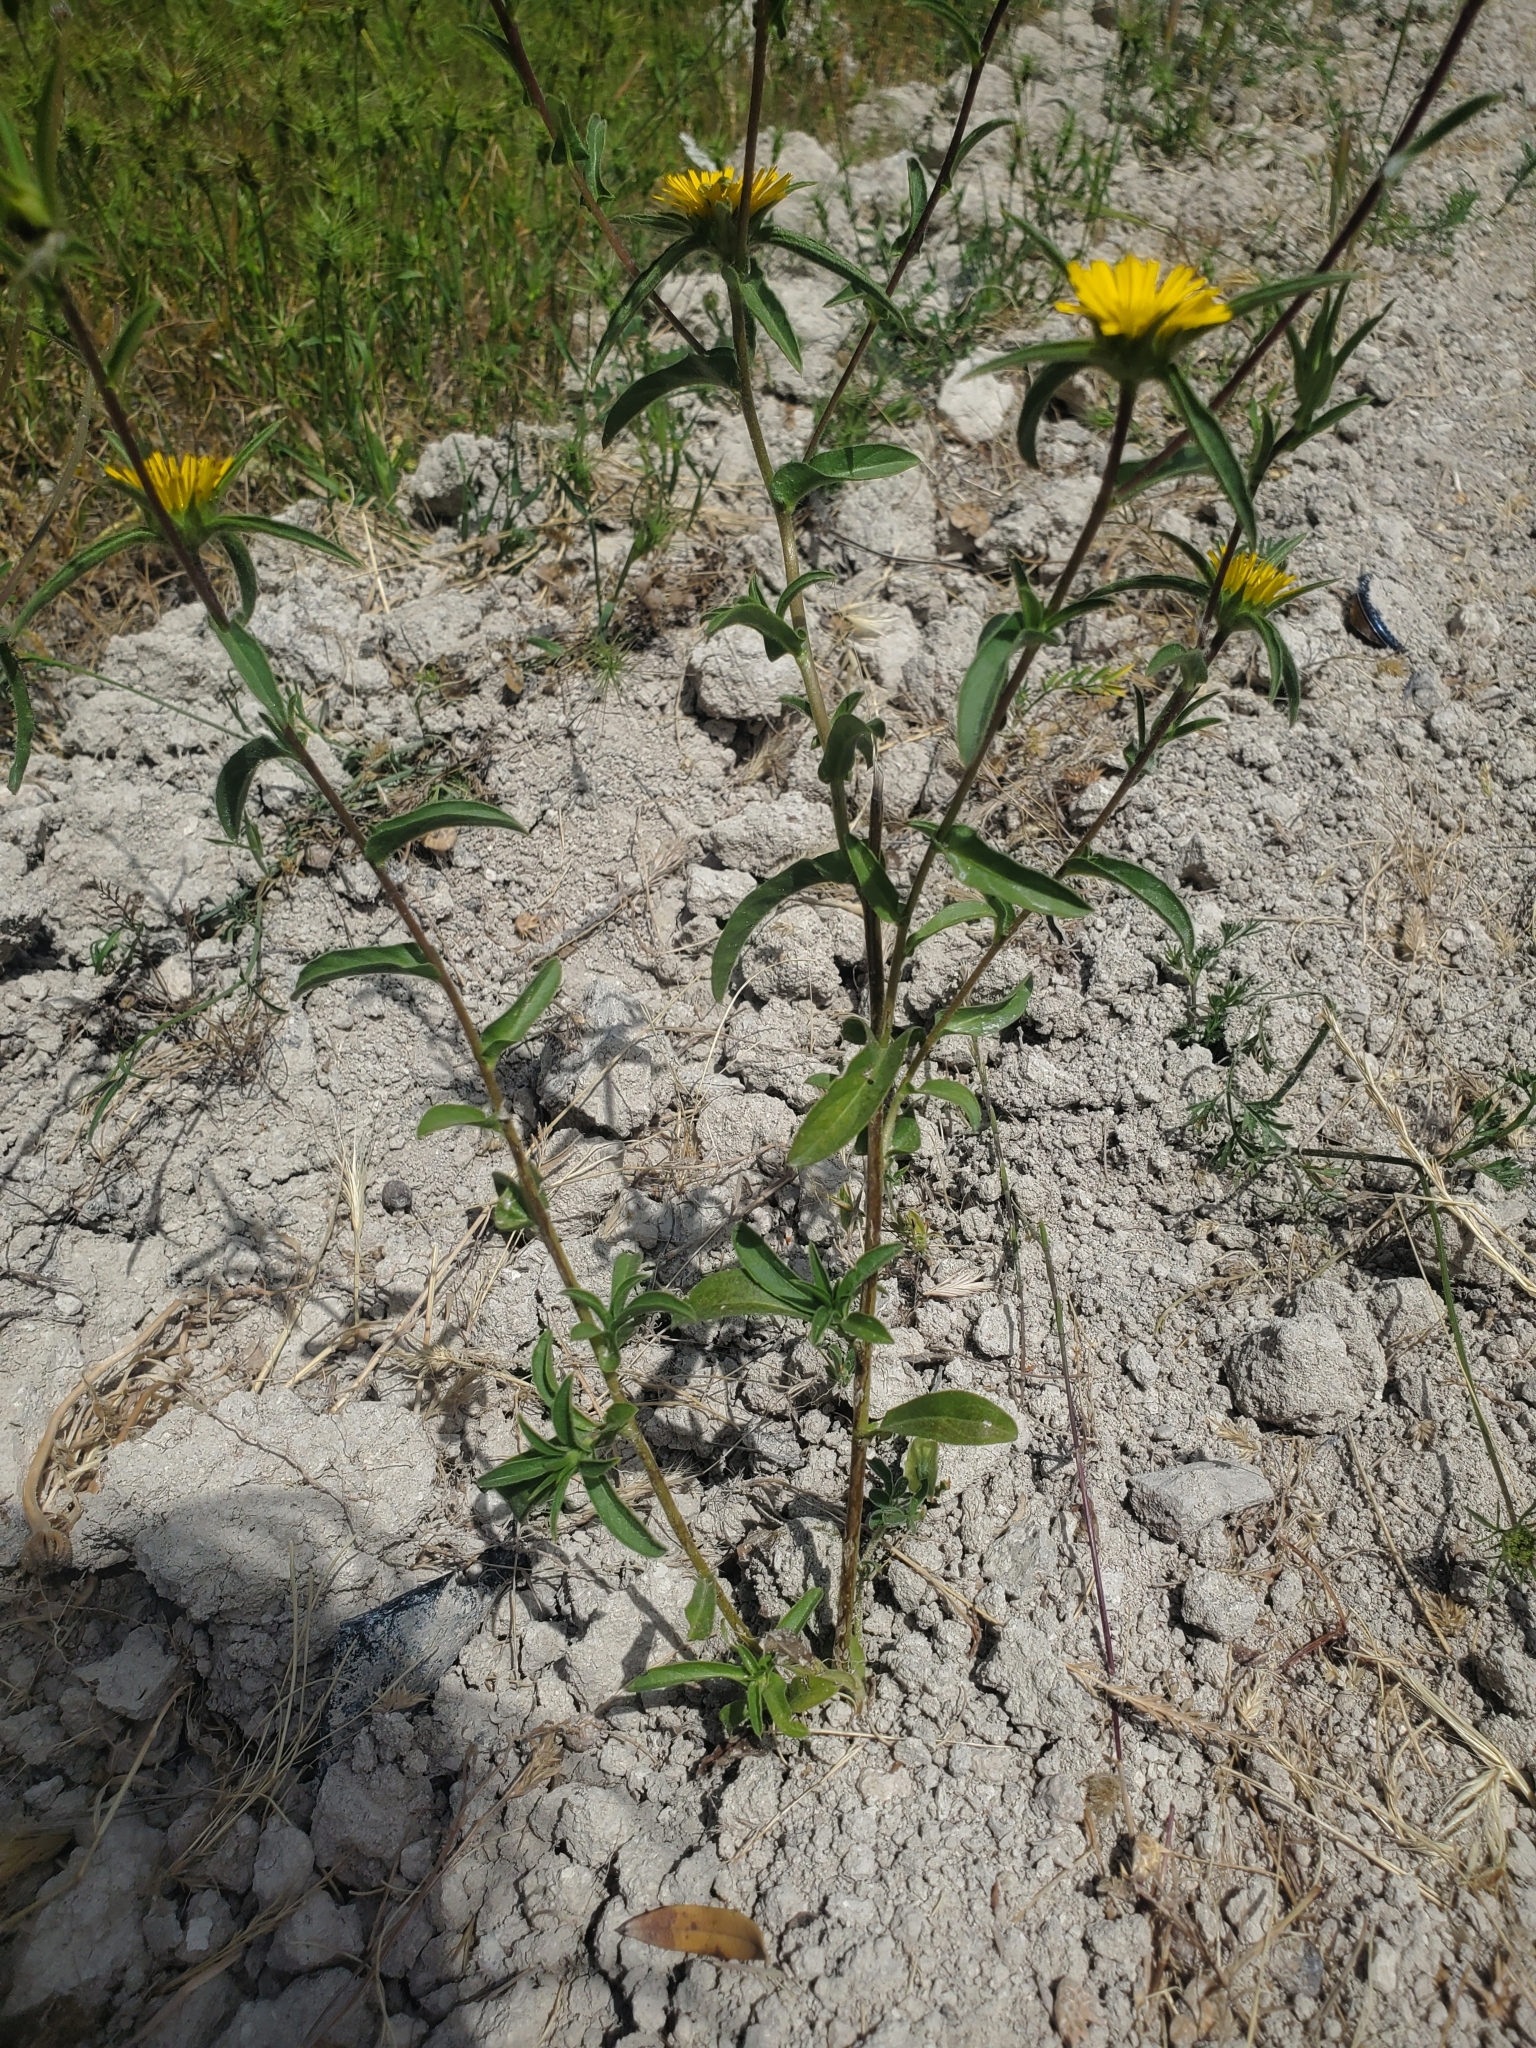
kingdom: Plantae
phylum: Tracheophyta
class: Magnoliopsida
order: Asterales
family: Asteraceae
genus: Pallenis
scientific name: Pallenis spinosa
